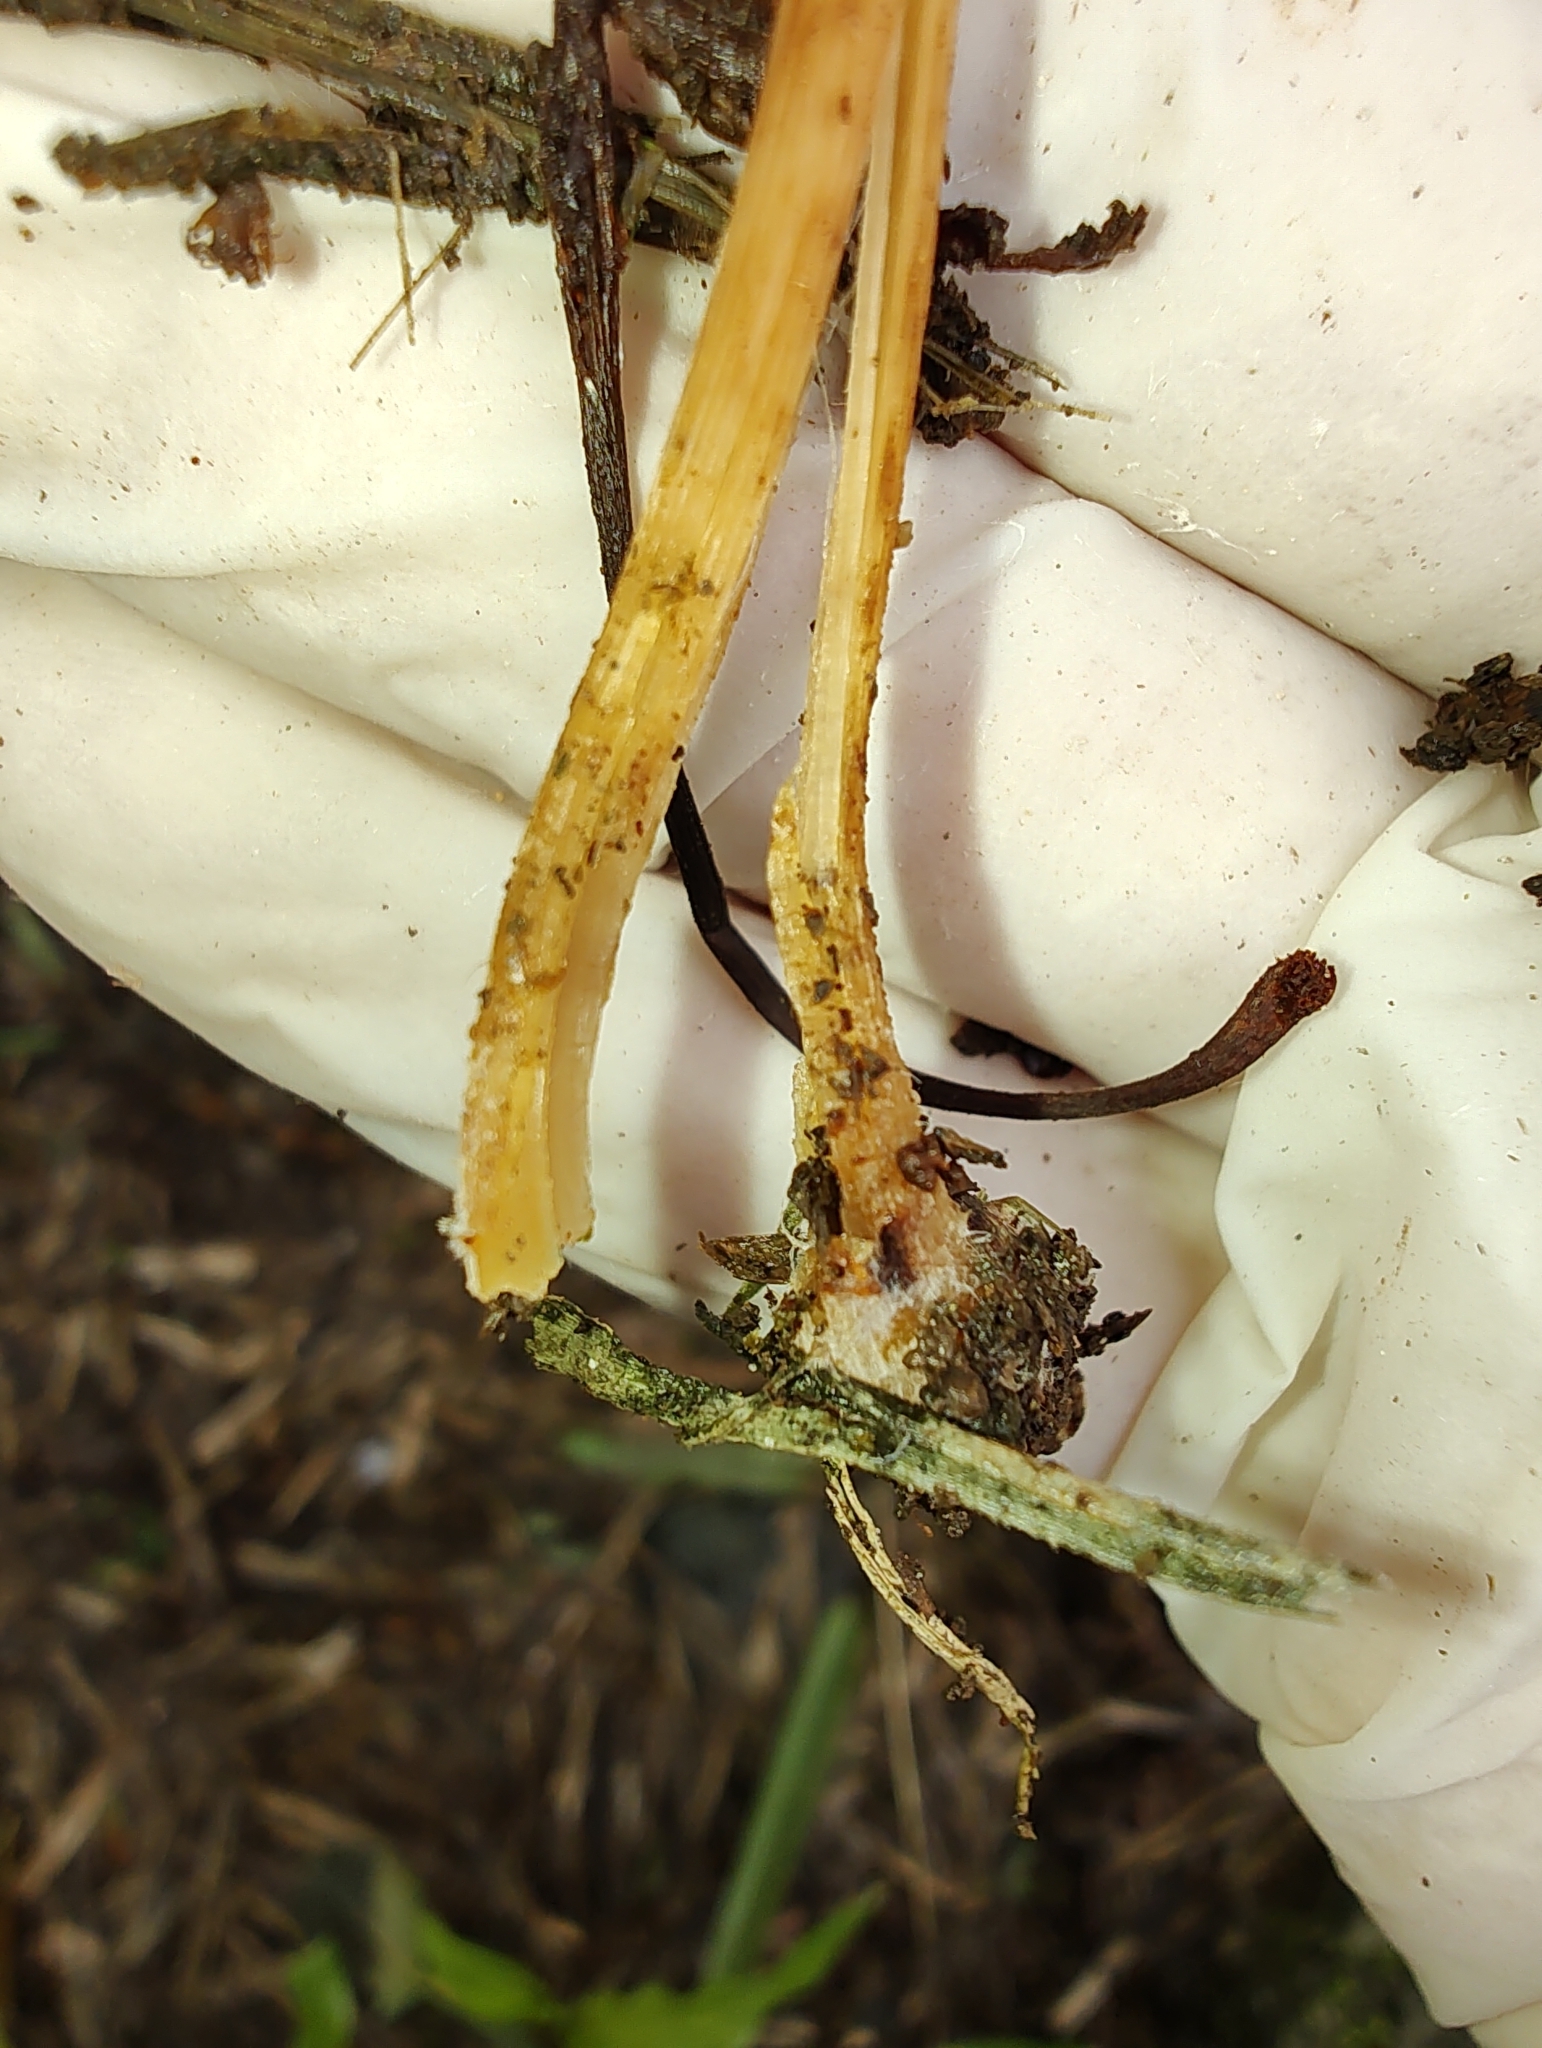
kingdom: Fungi
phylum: Basidiomycota
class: Agaricomycetes
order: Agaricales
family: Bolbitiaceae
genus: Conocybe
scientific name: Conocybe aurea
